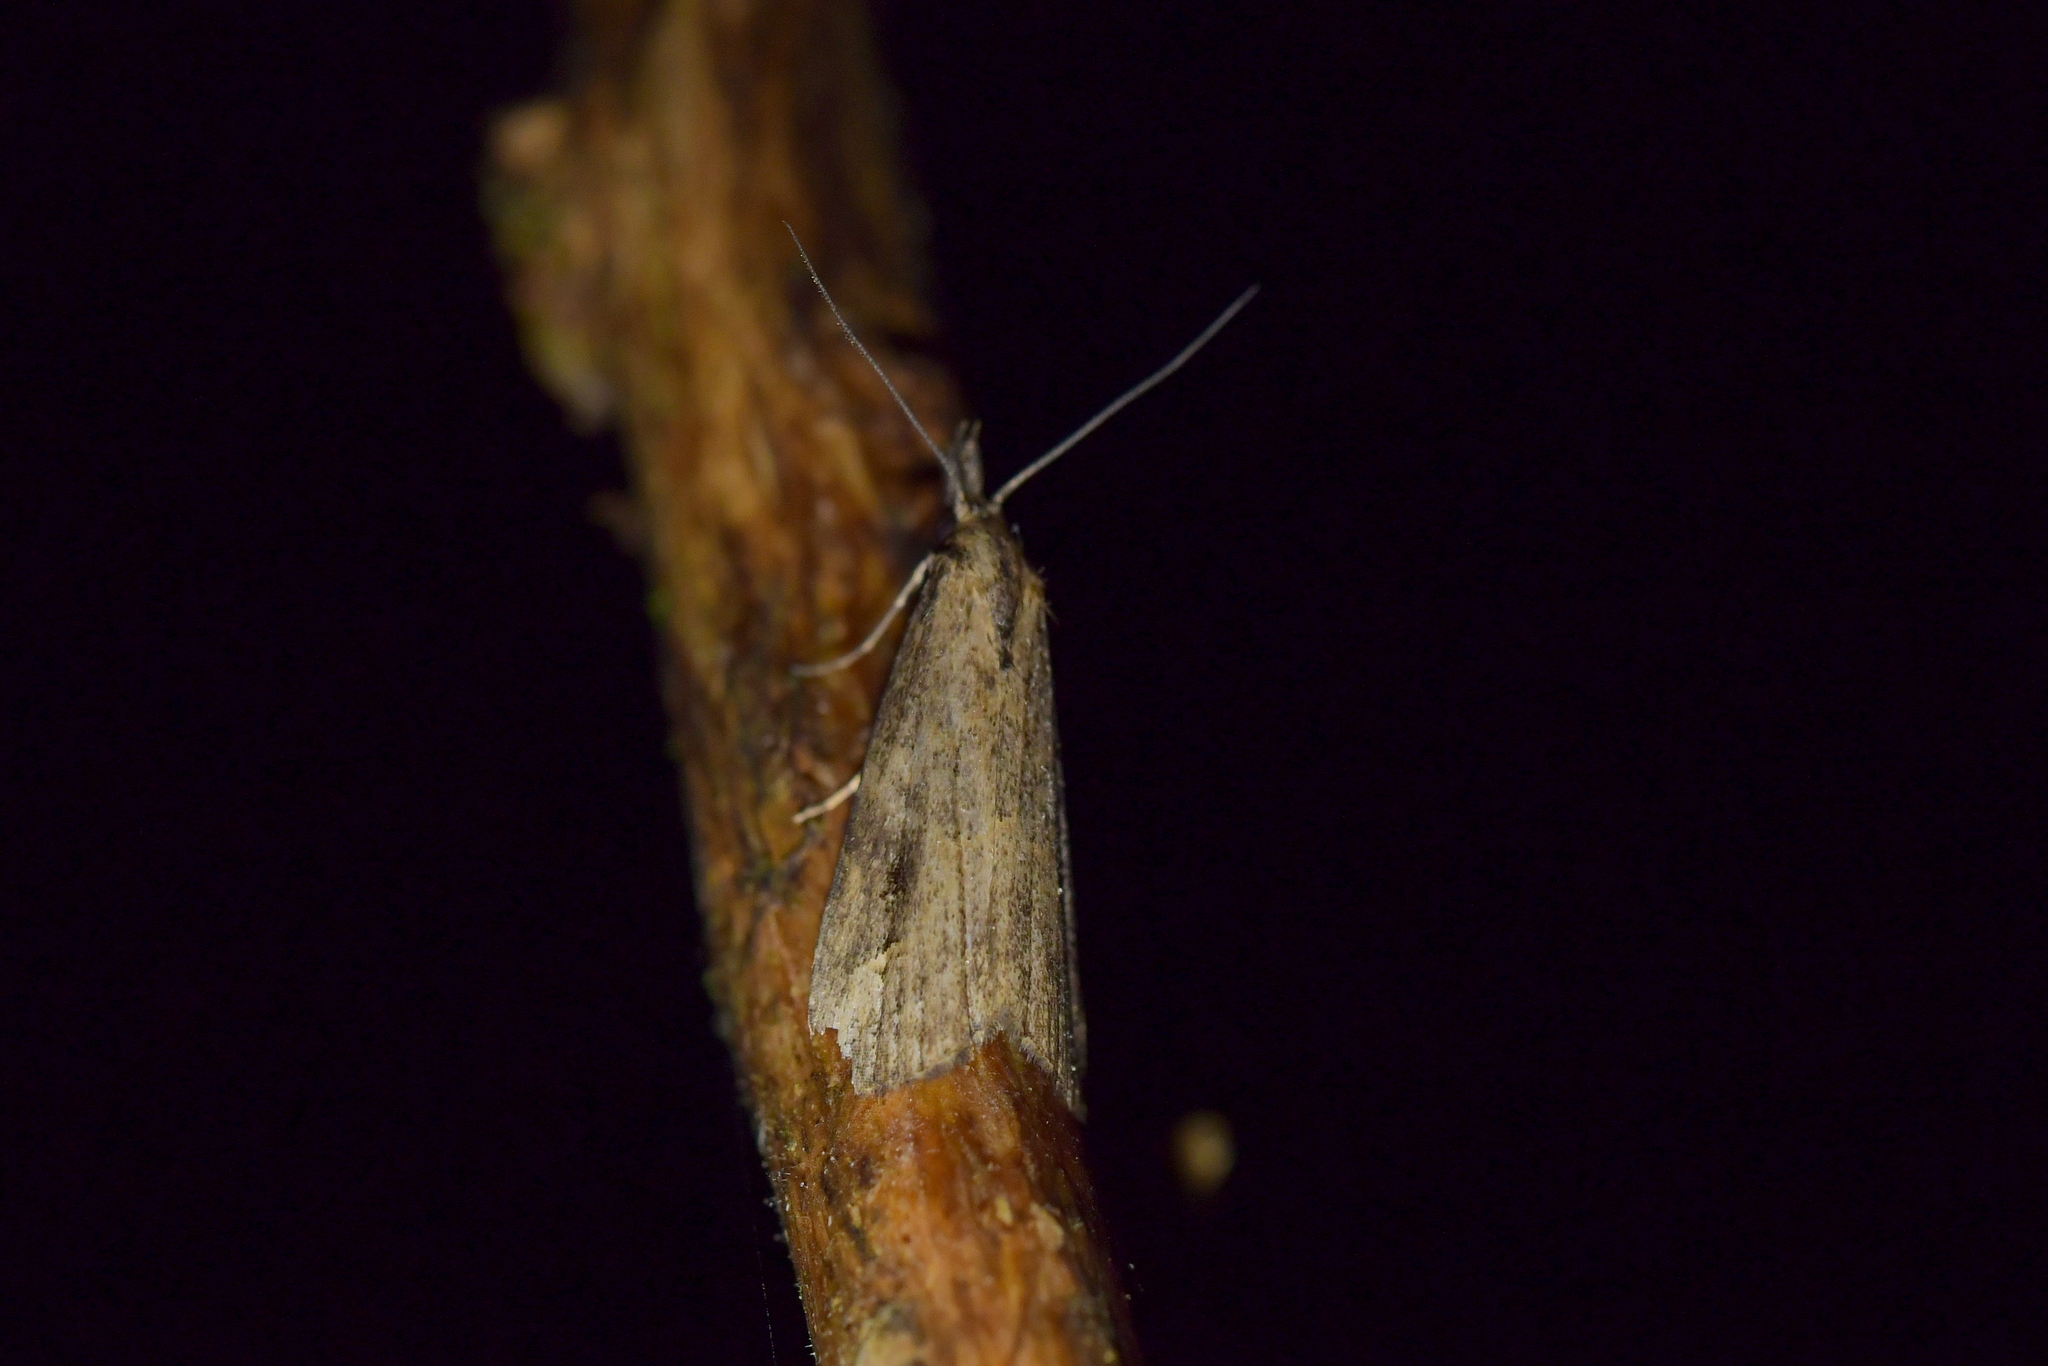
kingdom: Animalia
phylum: Arthropoda
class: Insecta
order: Lepidoptera
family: Erebidae
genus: Schrankia
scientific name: Schrankia costaestrigalis
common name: Pinion-streaked snout
